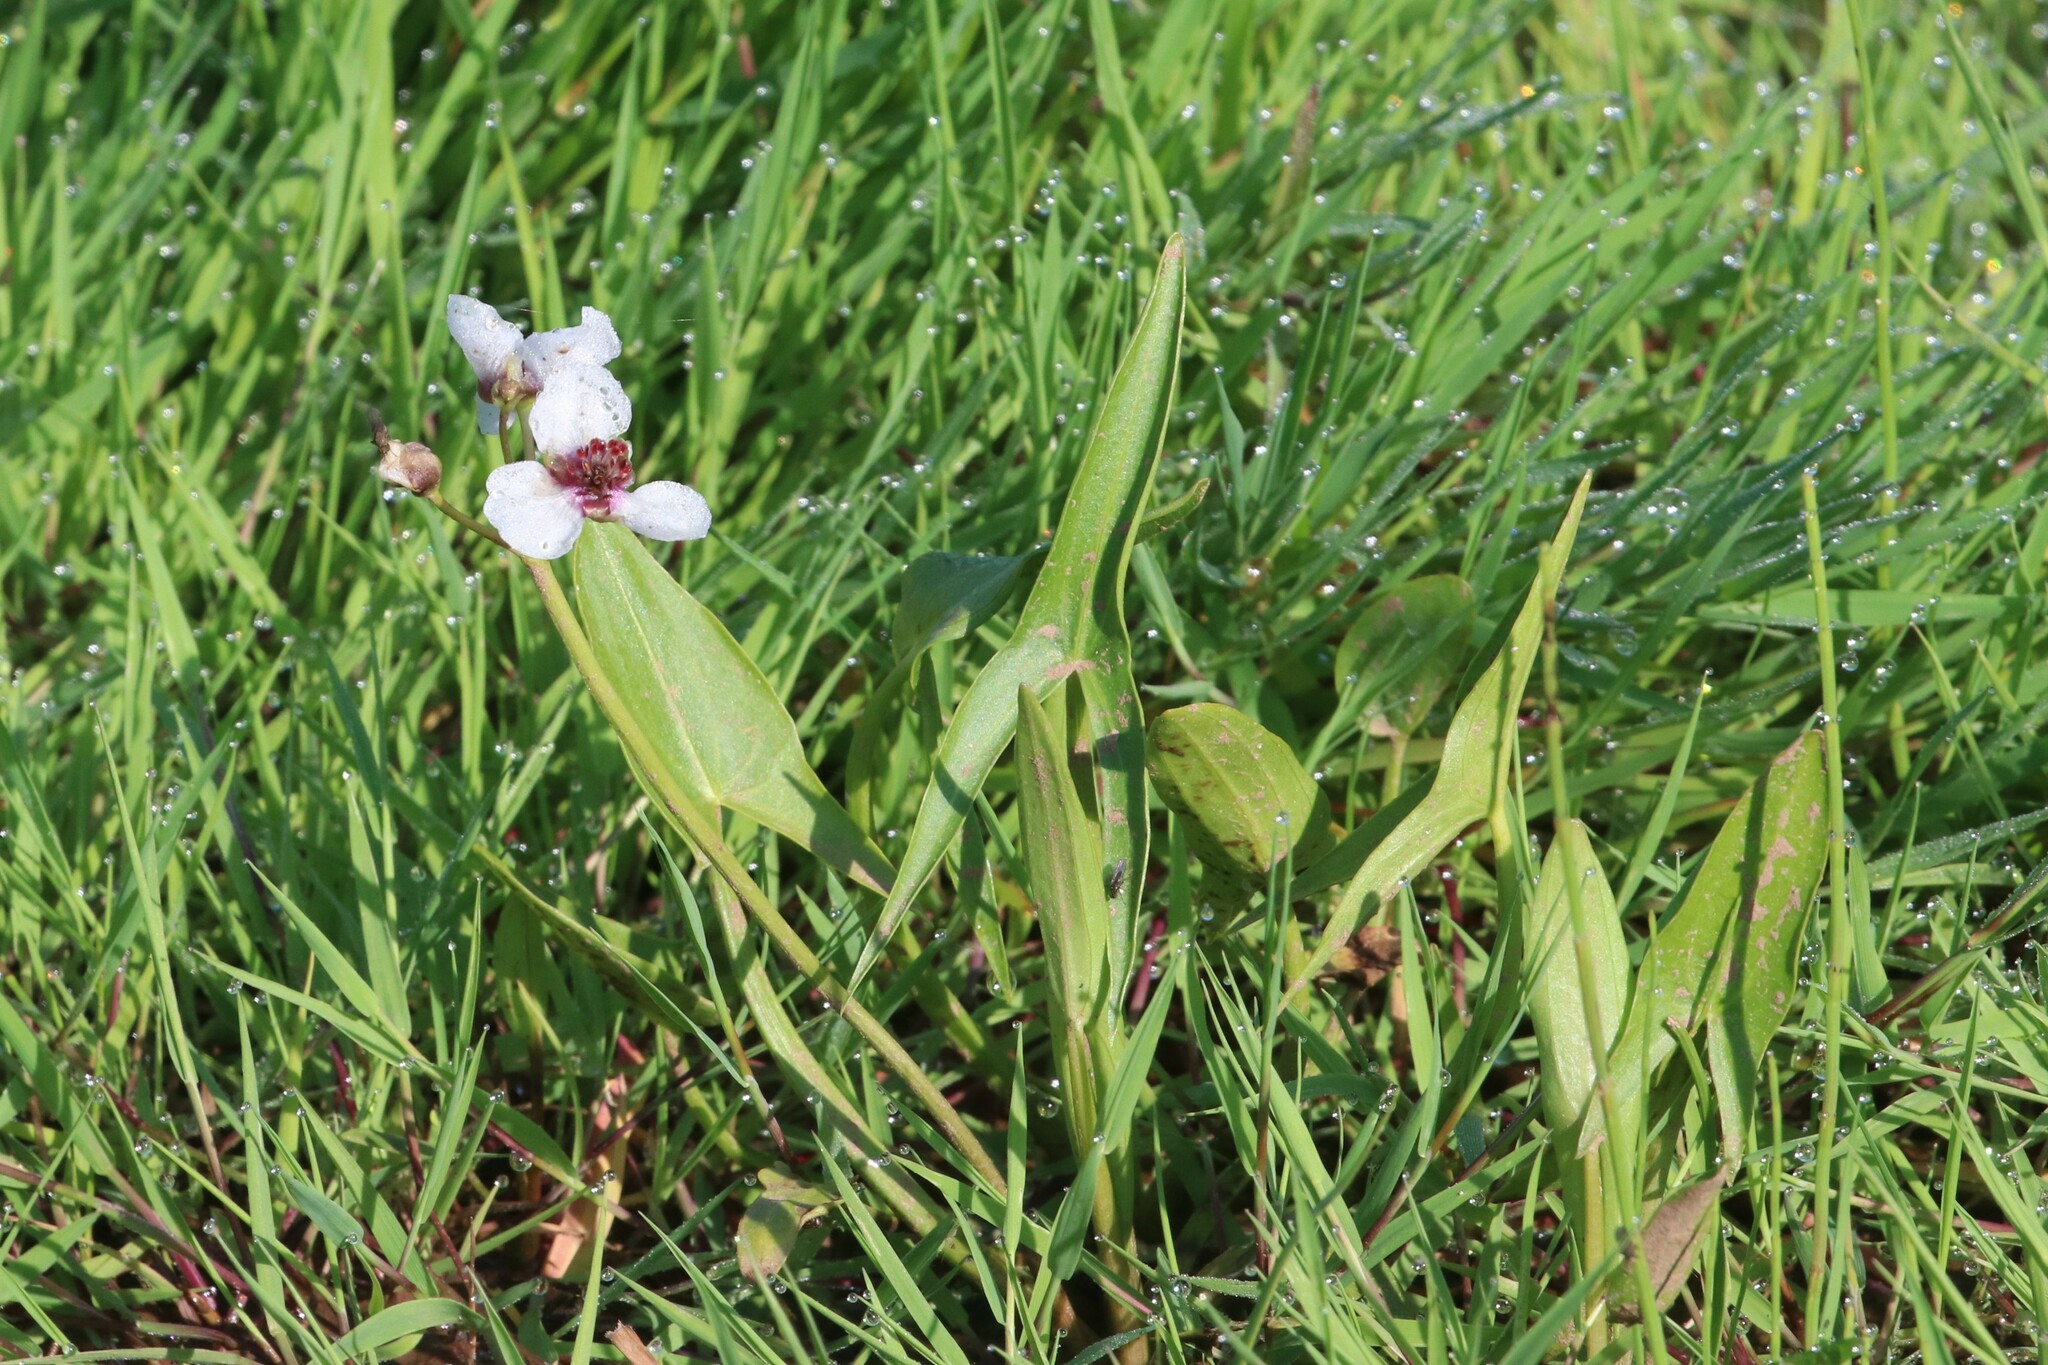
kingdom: Plantae
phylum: Tracheophyta
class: Liliopsida
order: Alismatales
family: Alismataceae
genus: Sagittaria
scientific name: Sagittaria sagittifolia
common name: Arrowhead
